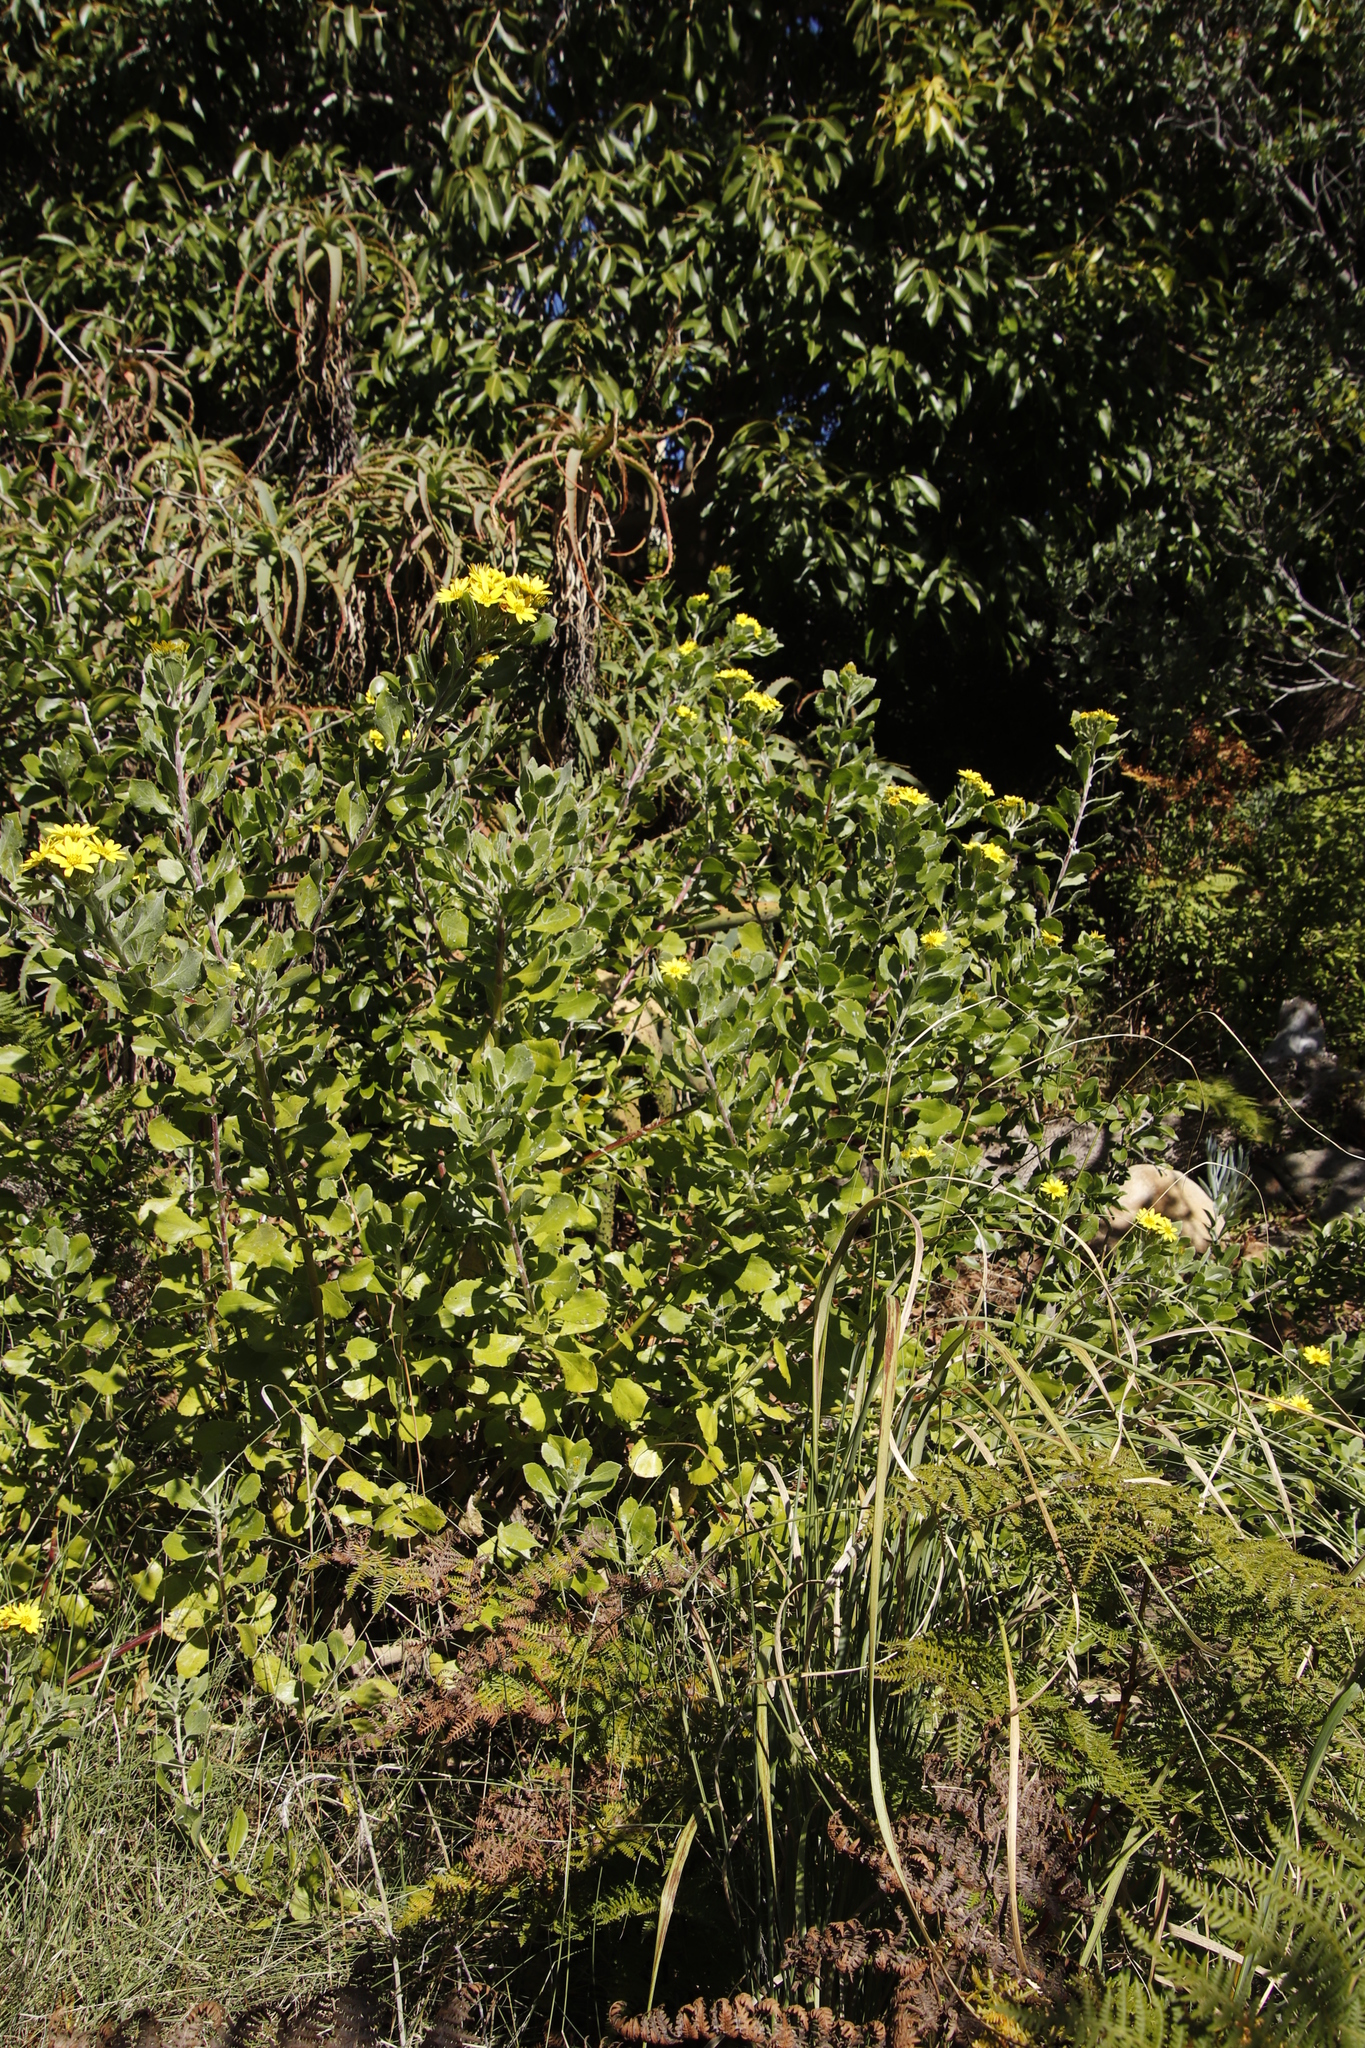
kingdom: Plantae
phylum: Tracheophyta
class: Magnoliopsida
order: Asterales
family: Asteraceae
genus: Osteospermum
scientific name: Osteospermum moniliferum
